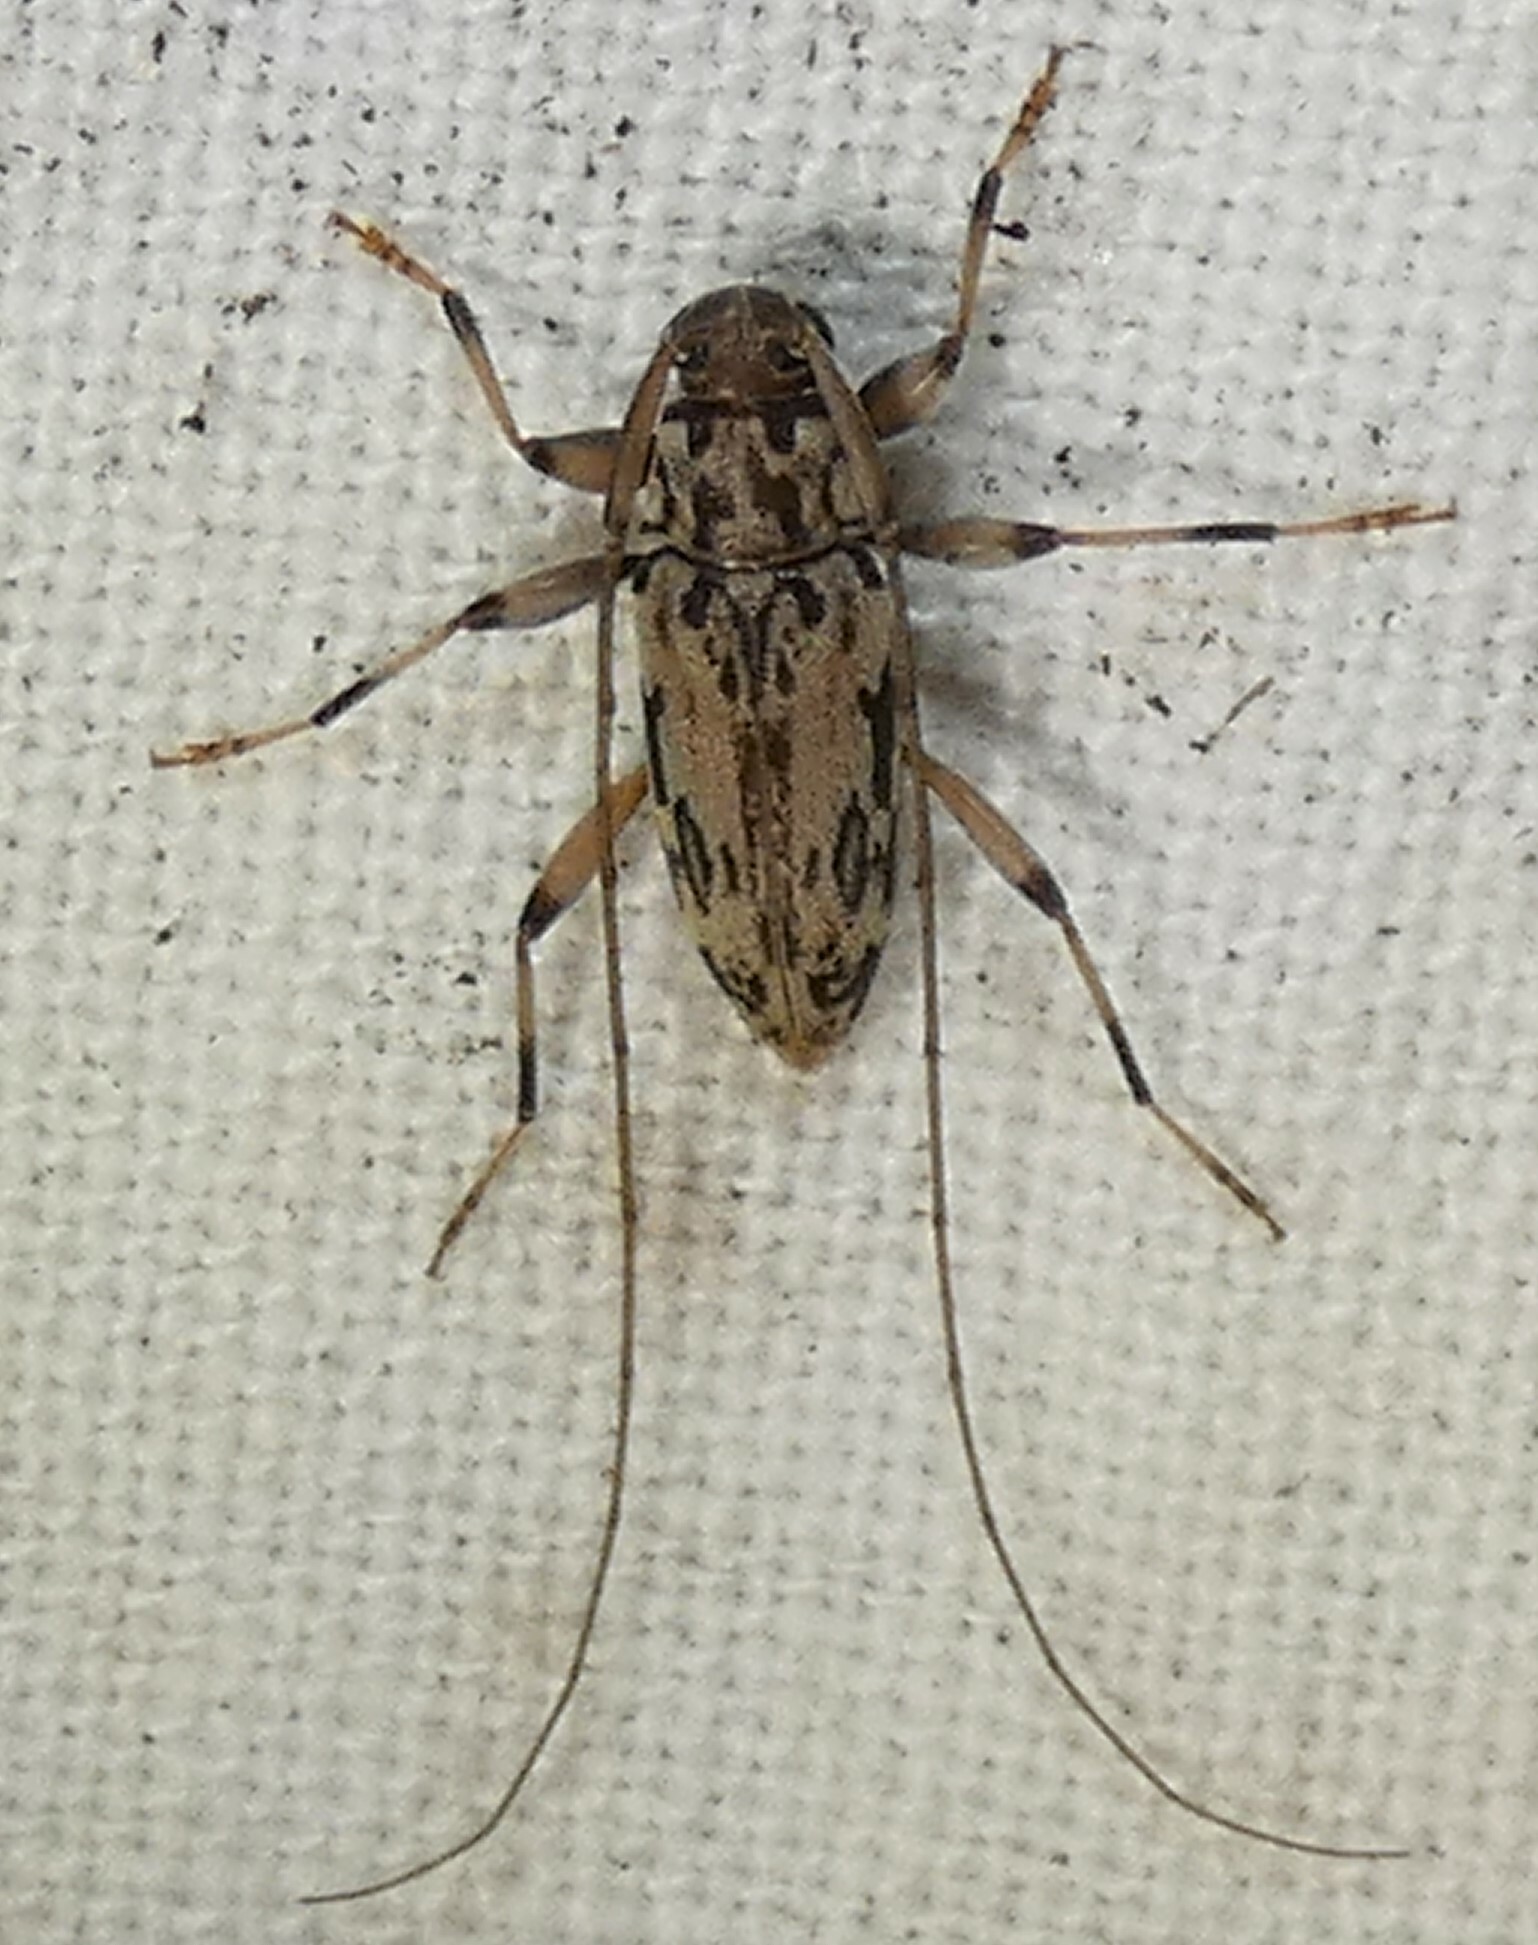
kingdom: Animalia
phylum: Arthropoda
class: Insecta
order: Coleoptera
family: Cerambycidae
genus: Lepturges
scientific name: Lepturges angulatus
